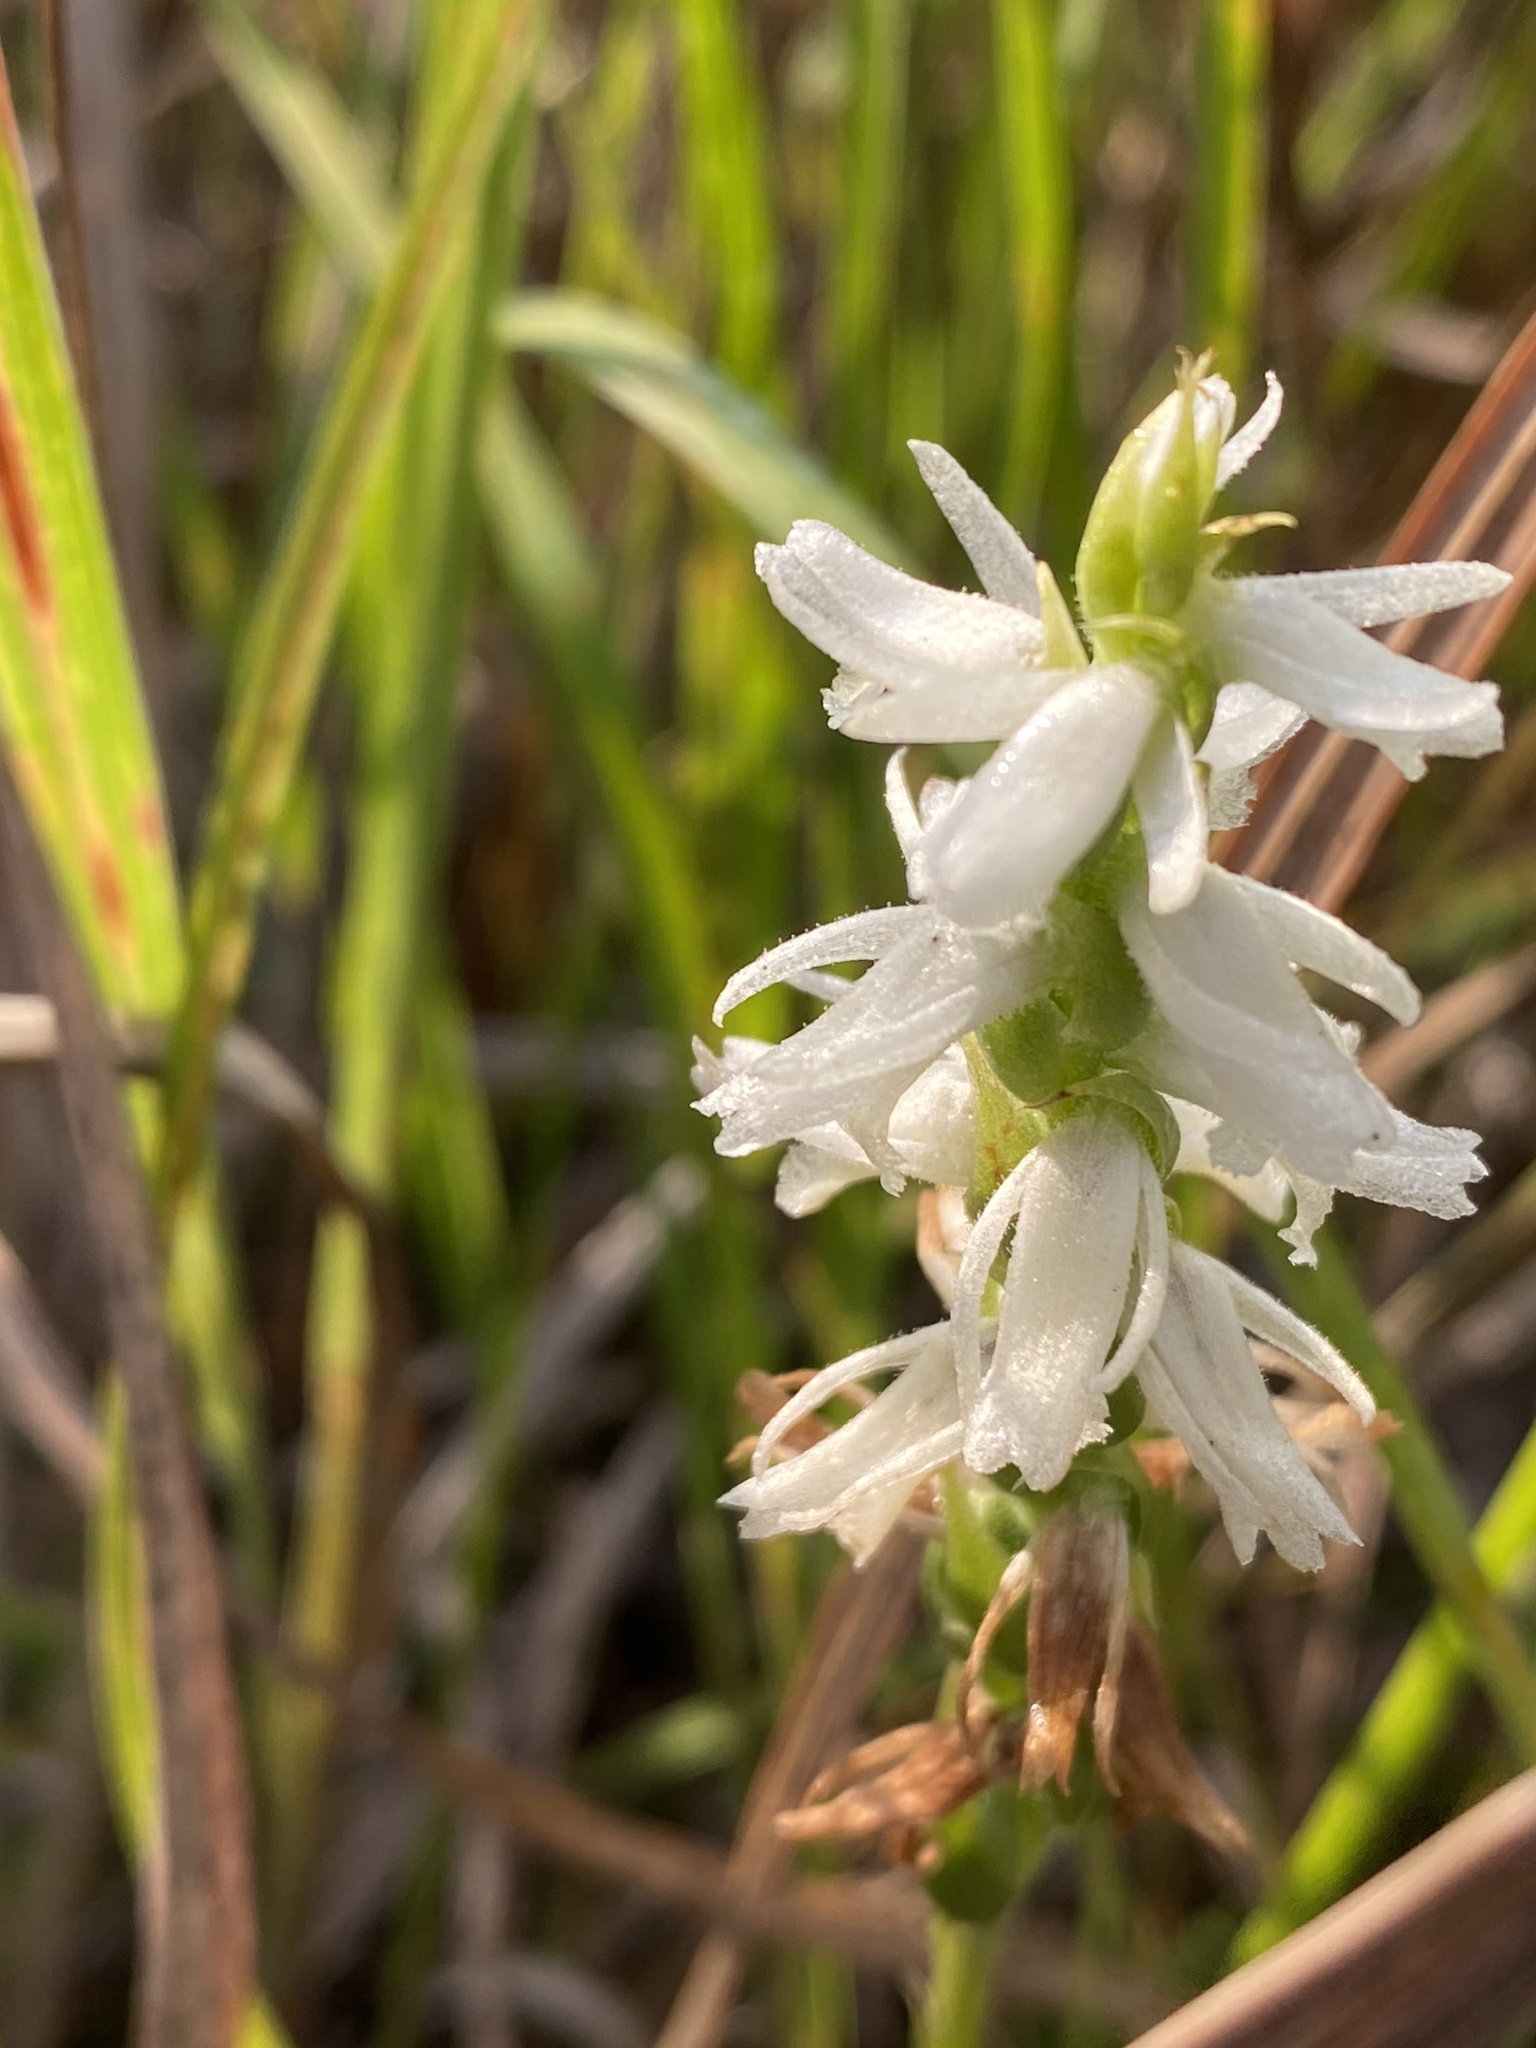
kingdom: Plantae
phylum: Tracheophyta
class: Liliopsida
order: Asparagales
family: Orchidaceae
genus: Spiranthes
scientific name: Spiranthes magnicamporum
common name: Great plains ladies'-tresses
